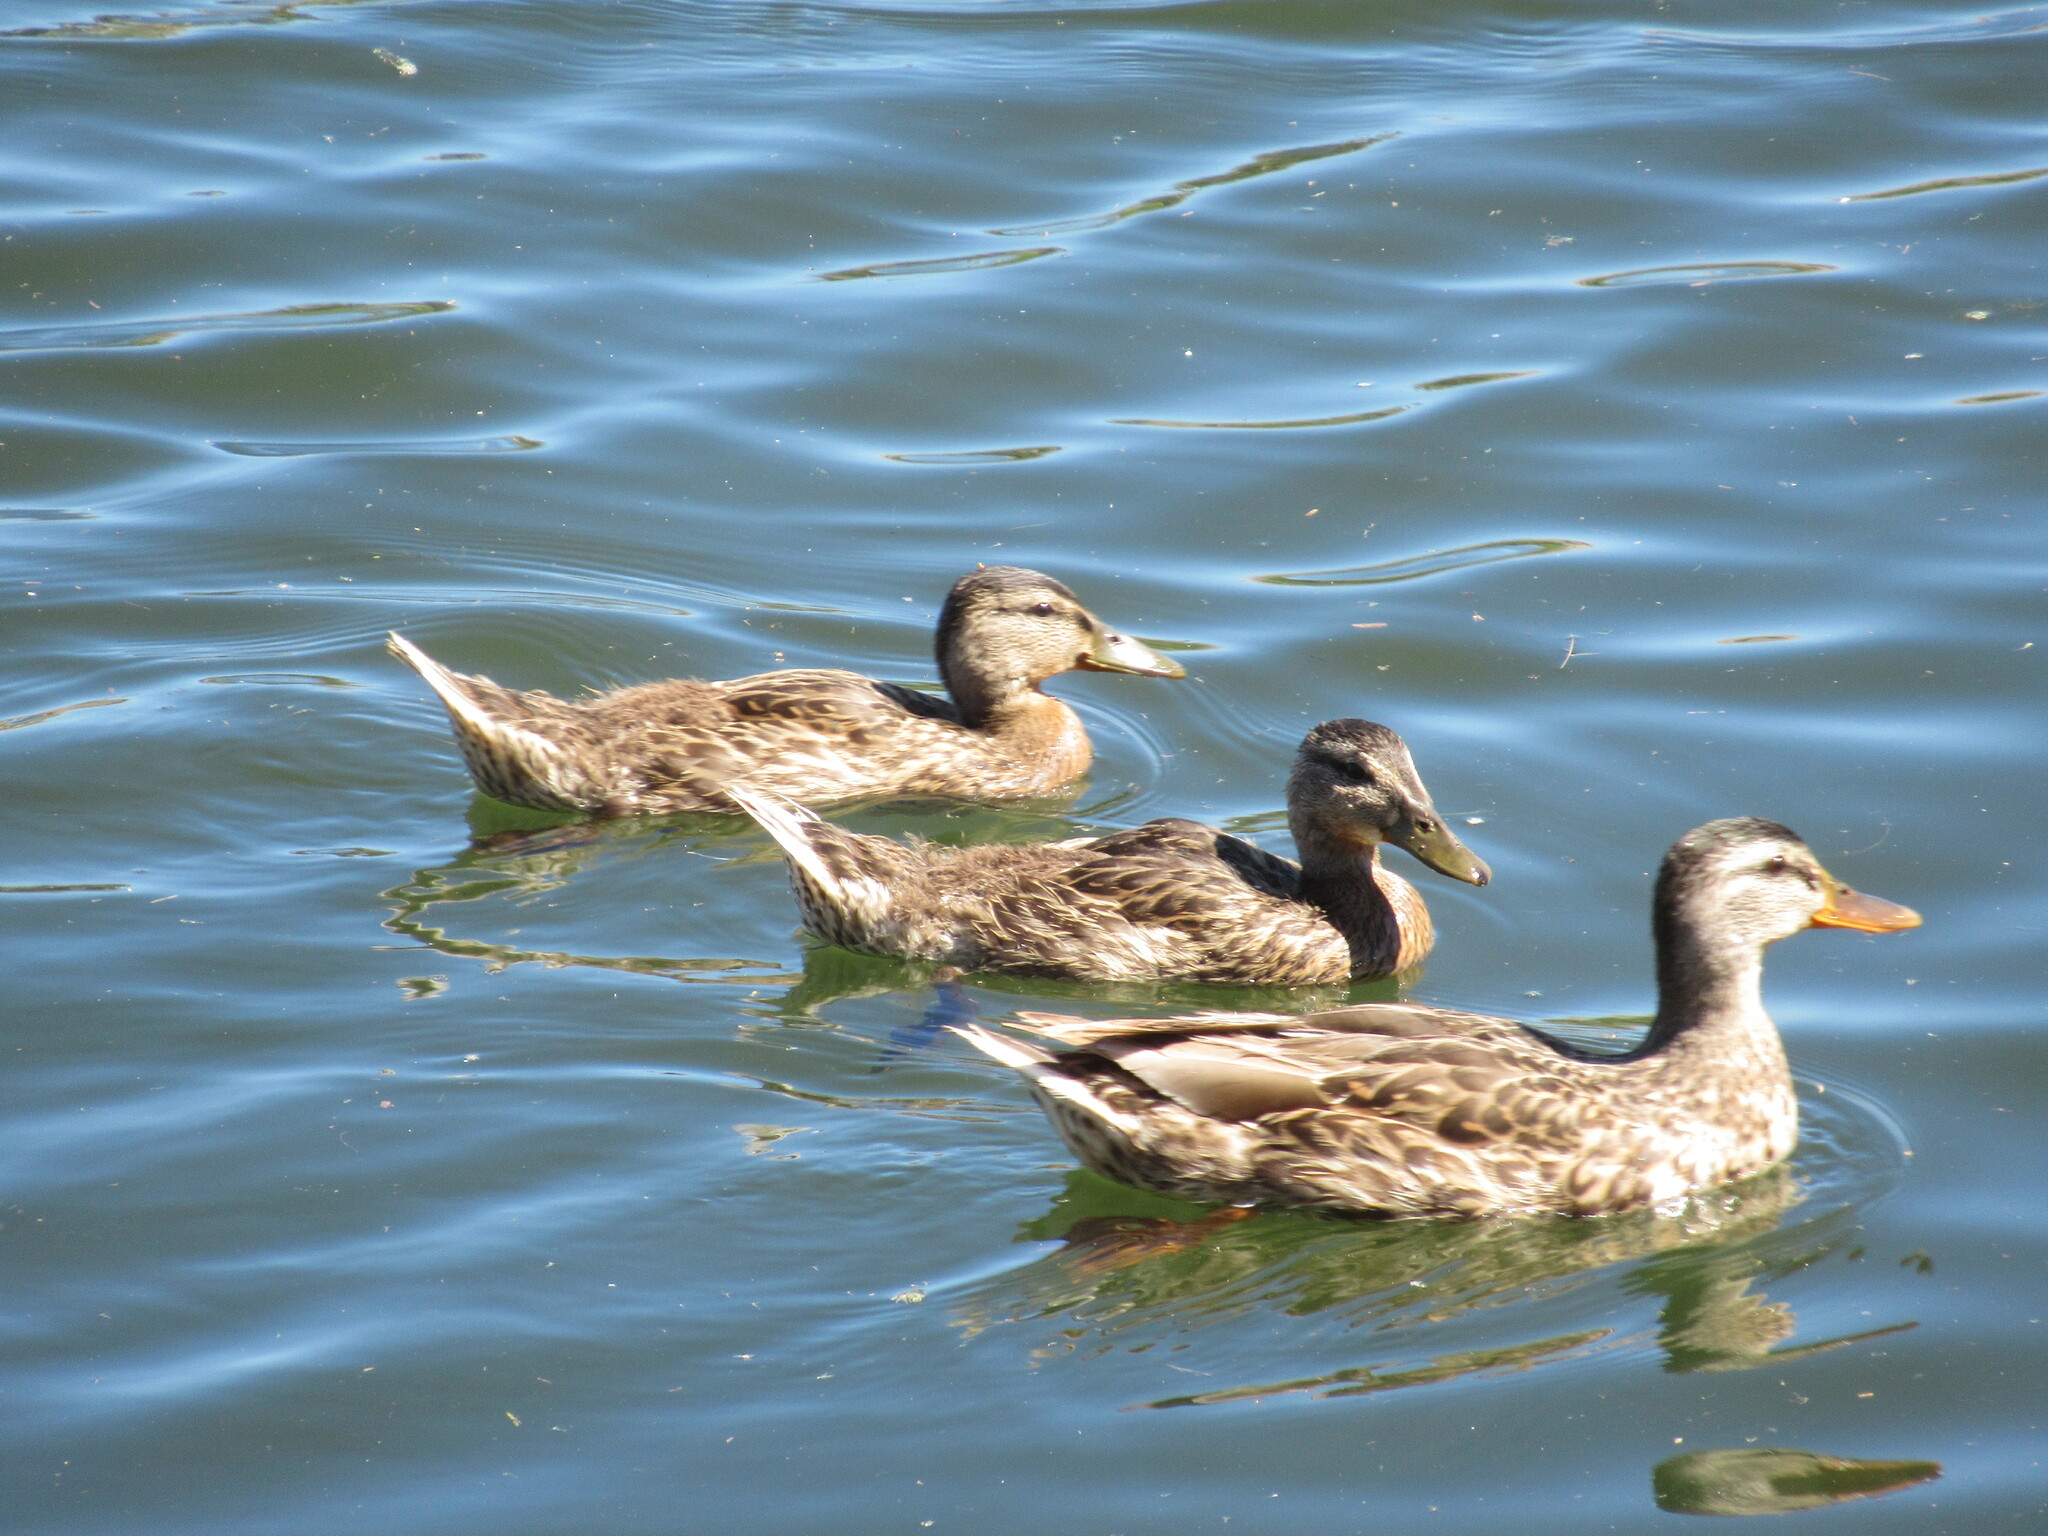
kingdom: Animalia
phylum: Chordata
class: Aves
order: Anseriformes
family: Anatidae
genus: Anas
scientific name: Anas platyrhynchos
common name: Mallard
